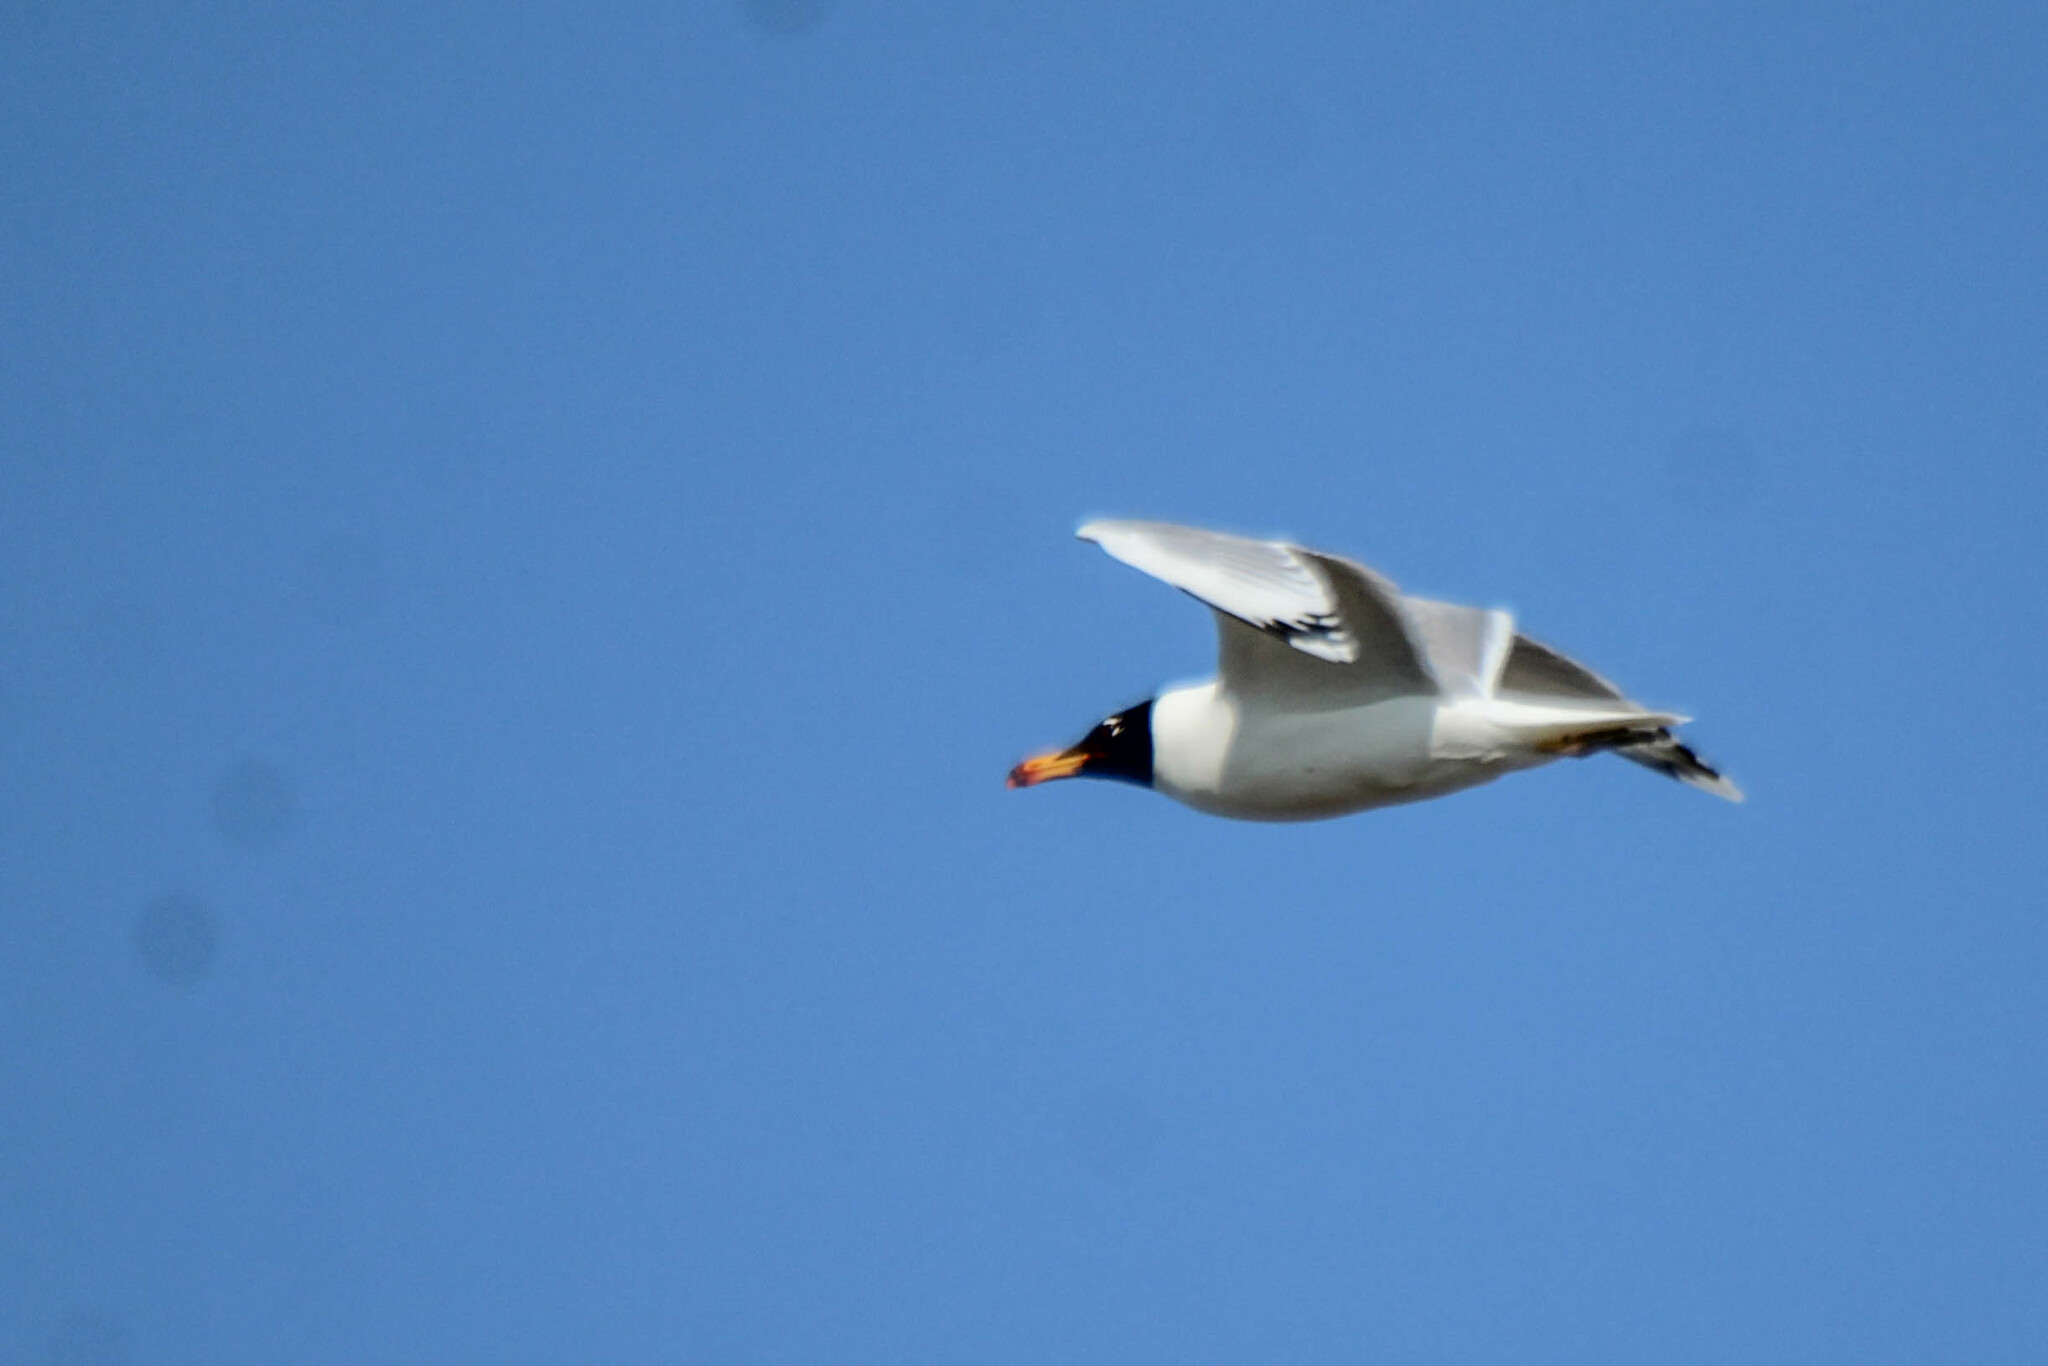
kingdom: Animalia
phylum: Chordata
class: Aves
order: Charadriiformes
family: Laridae
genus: Ichthyaetus
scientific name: Ichthyaetus ichthyaetus
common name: Pallas's gull
